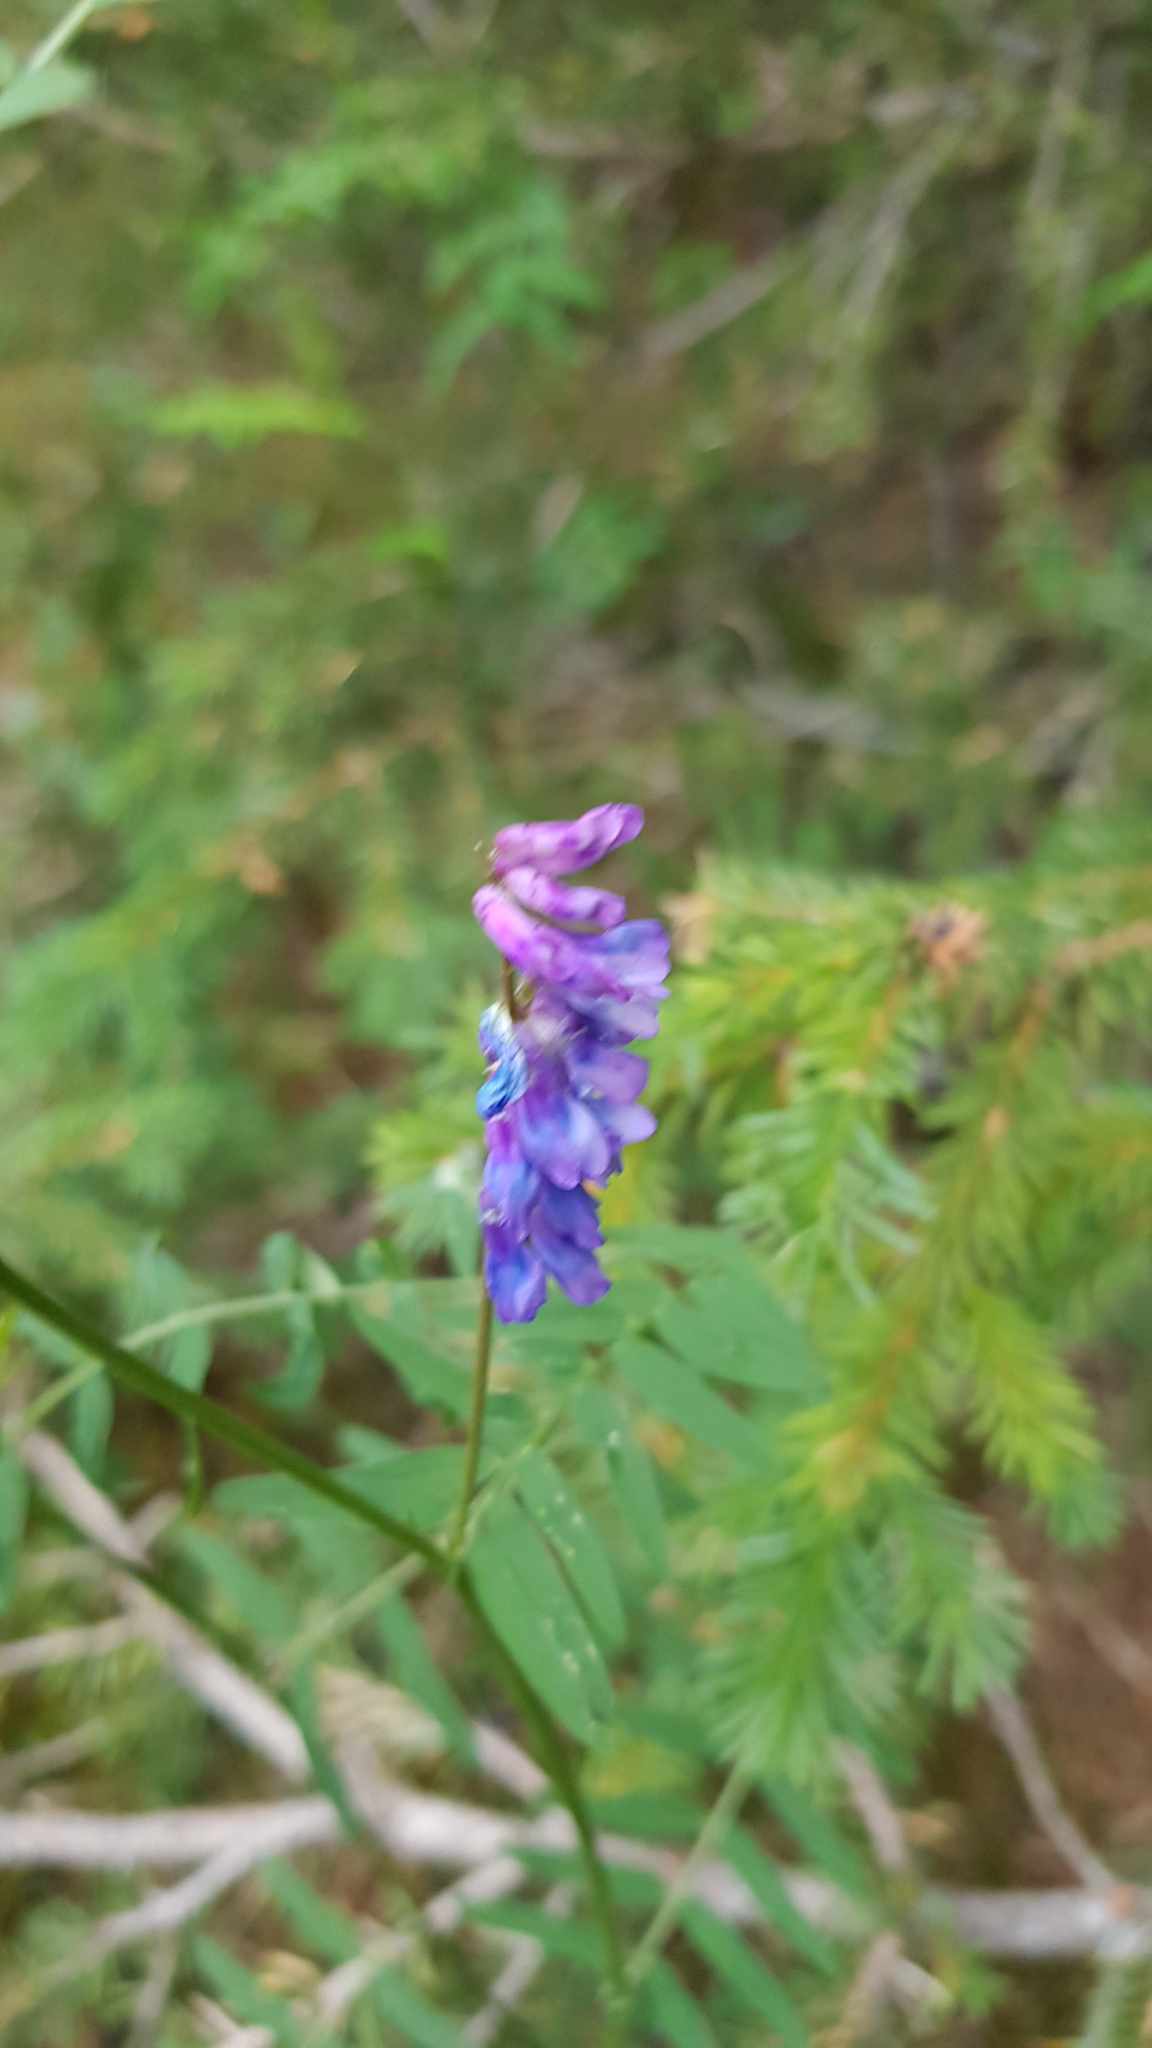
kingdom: Plantae
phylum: Tracheophyta
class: Magnoliopsida
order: Fabales
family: Fabaceae
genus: Vicia
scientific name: Vicia amoena
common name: Cheder ebs
